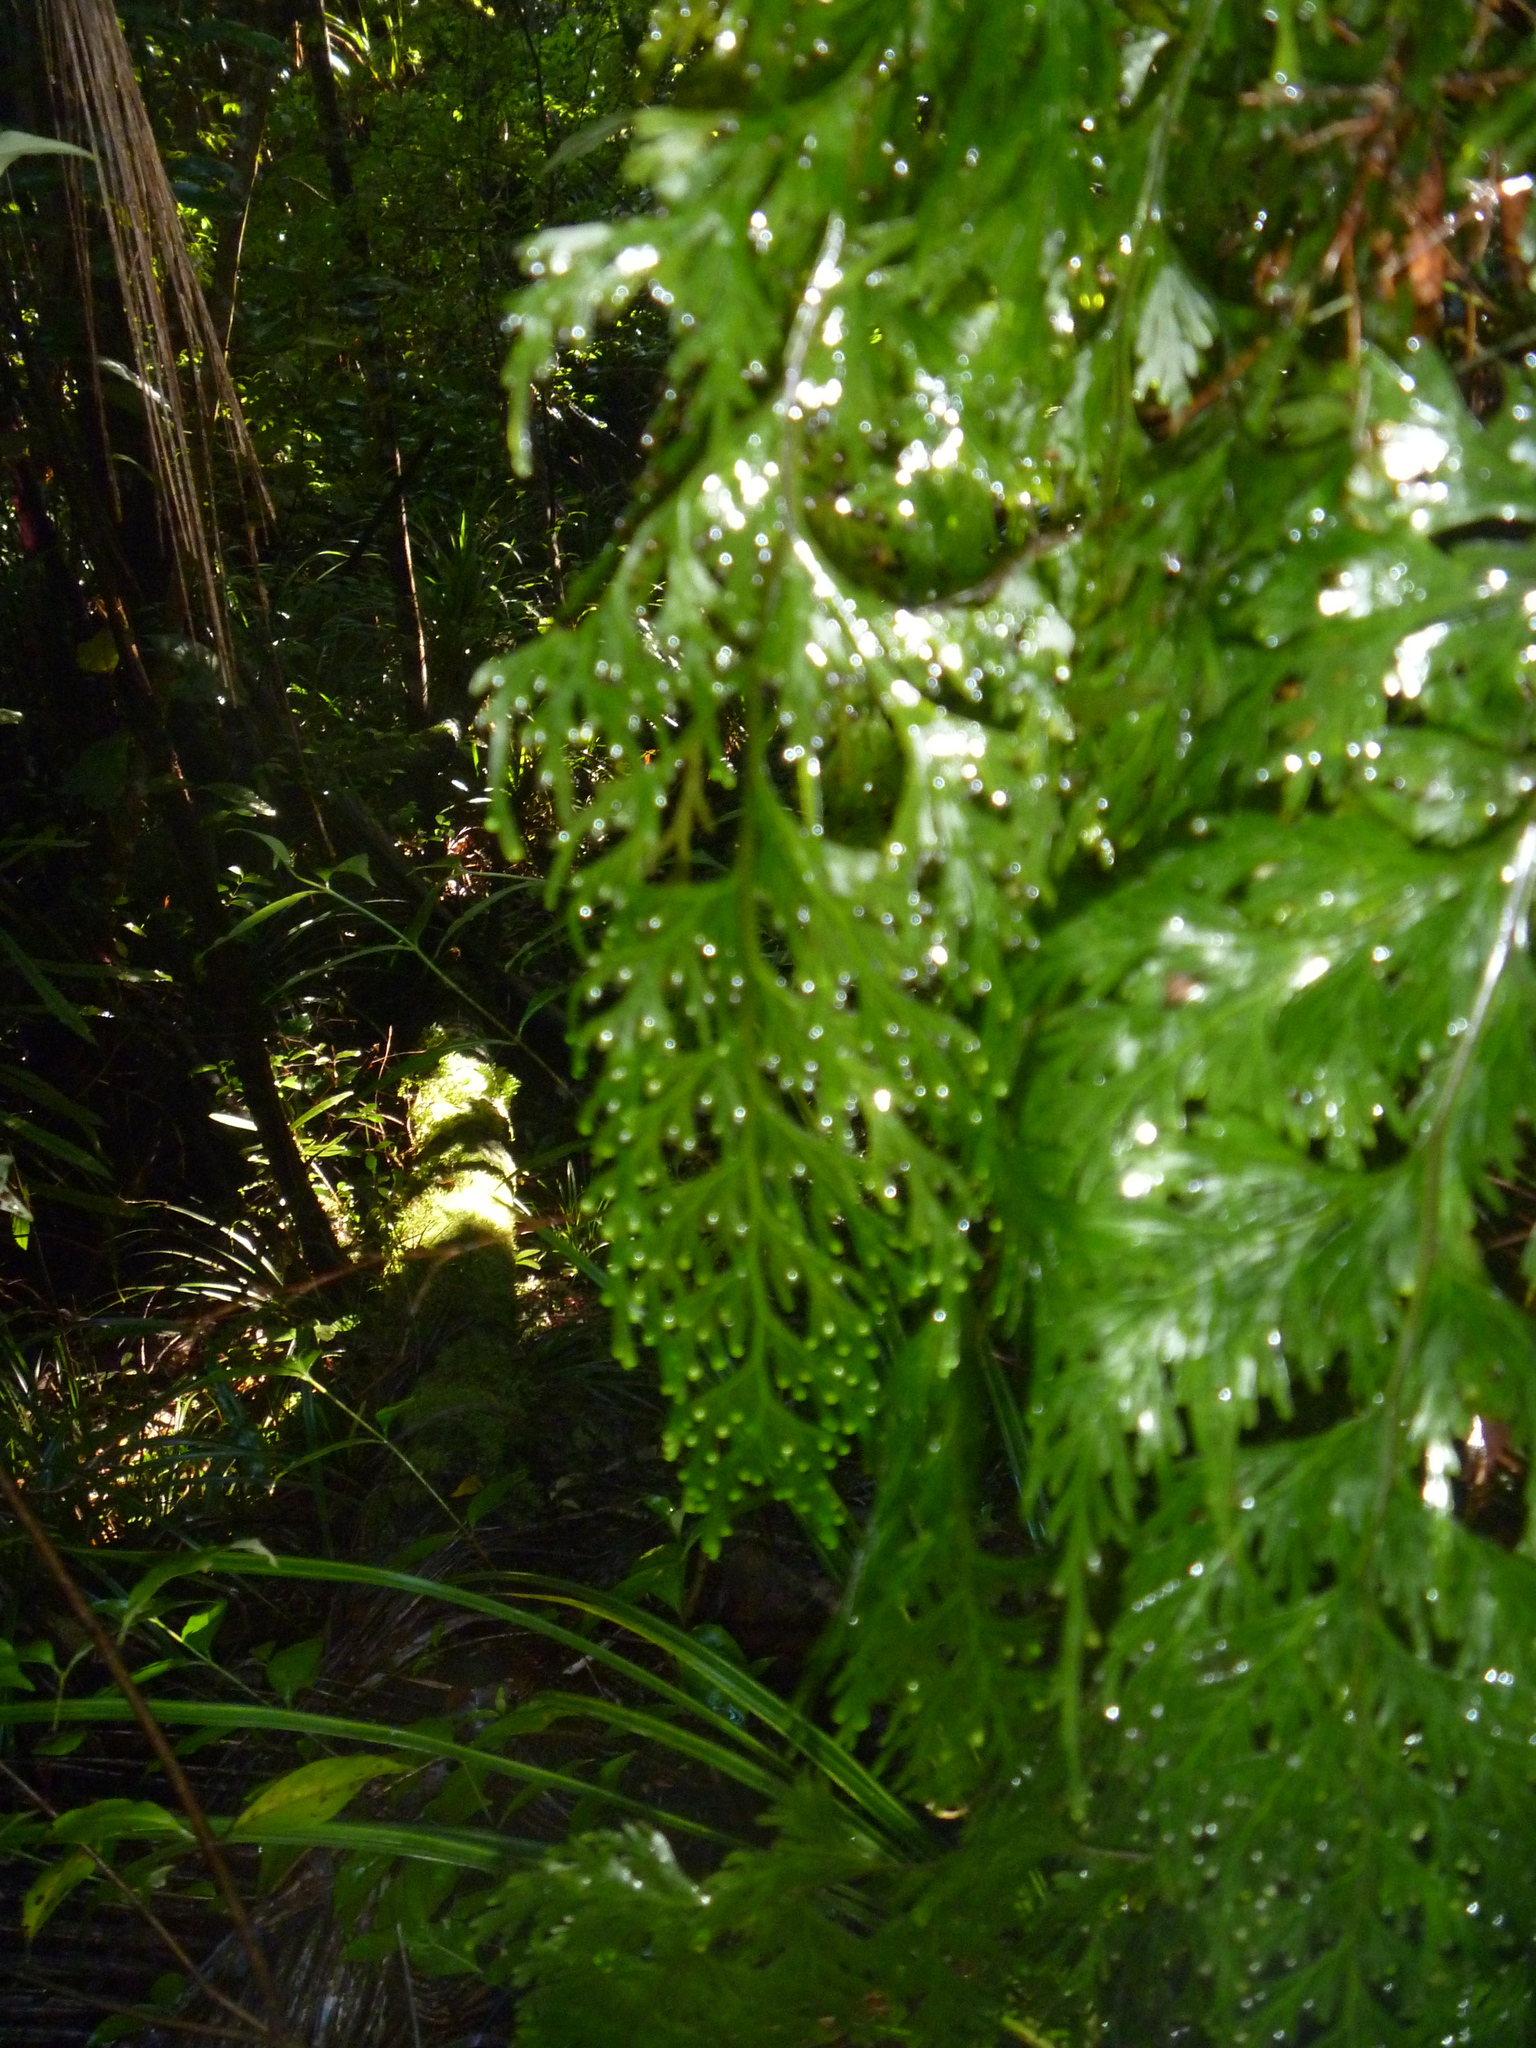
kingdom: Plantae
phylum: Tracheophyta
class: Polypodiopsida
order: Hymenophyllales
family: Hymenophyllaceae
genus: Hymenophyllum
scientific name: Hymenophyllum dilatatum
